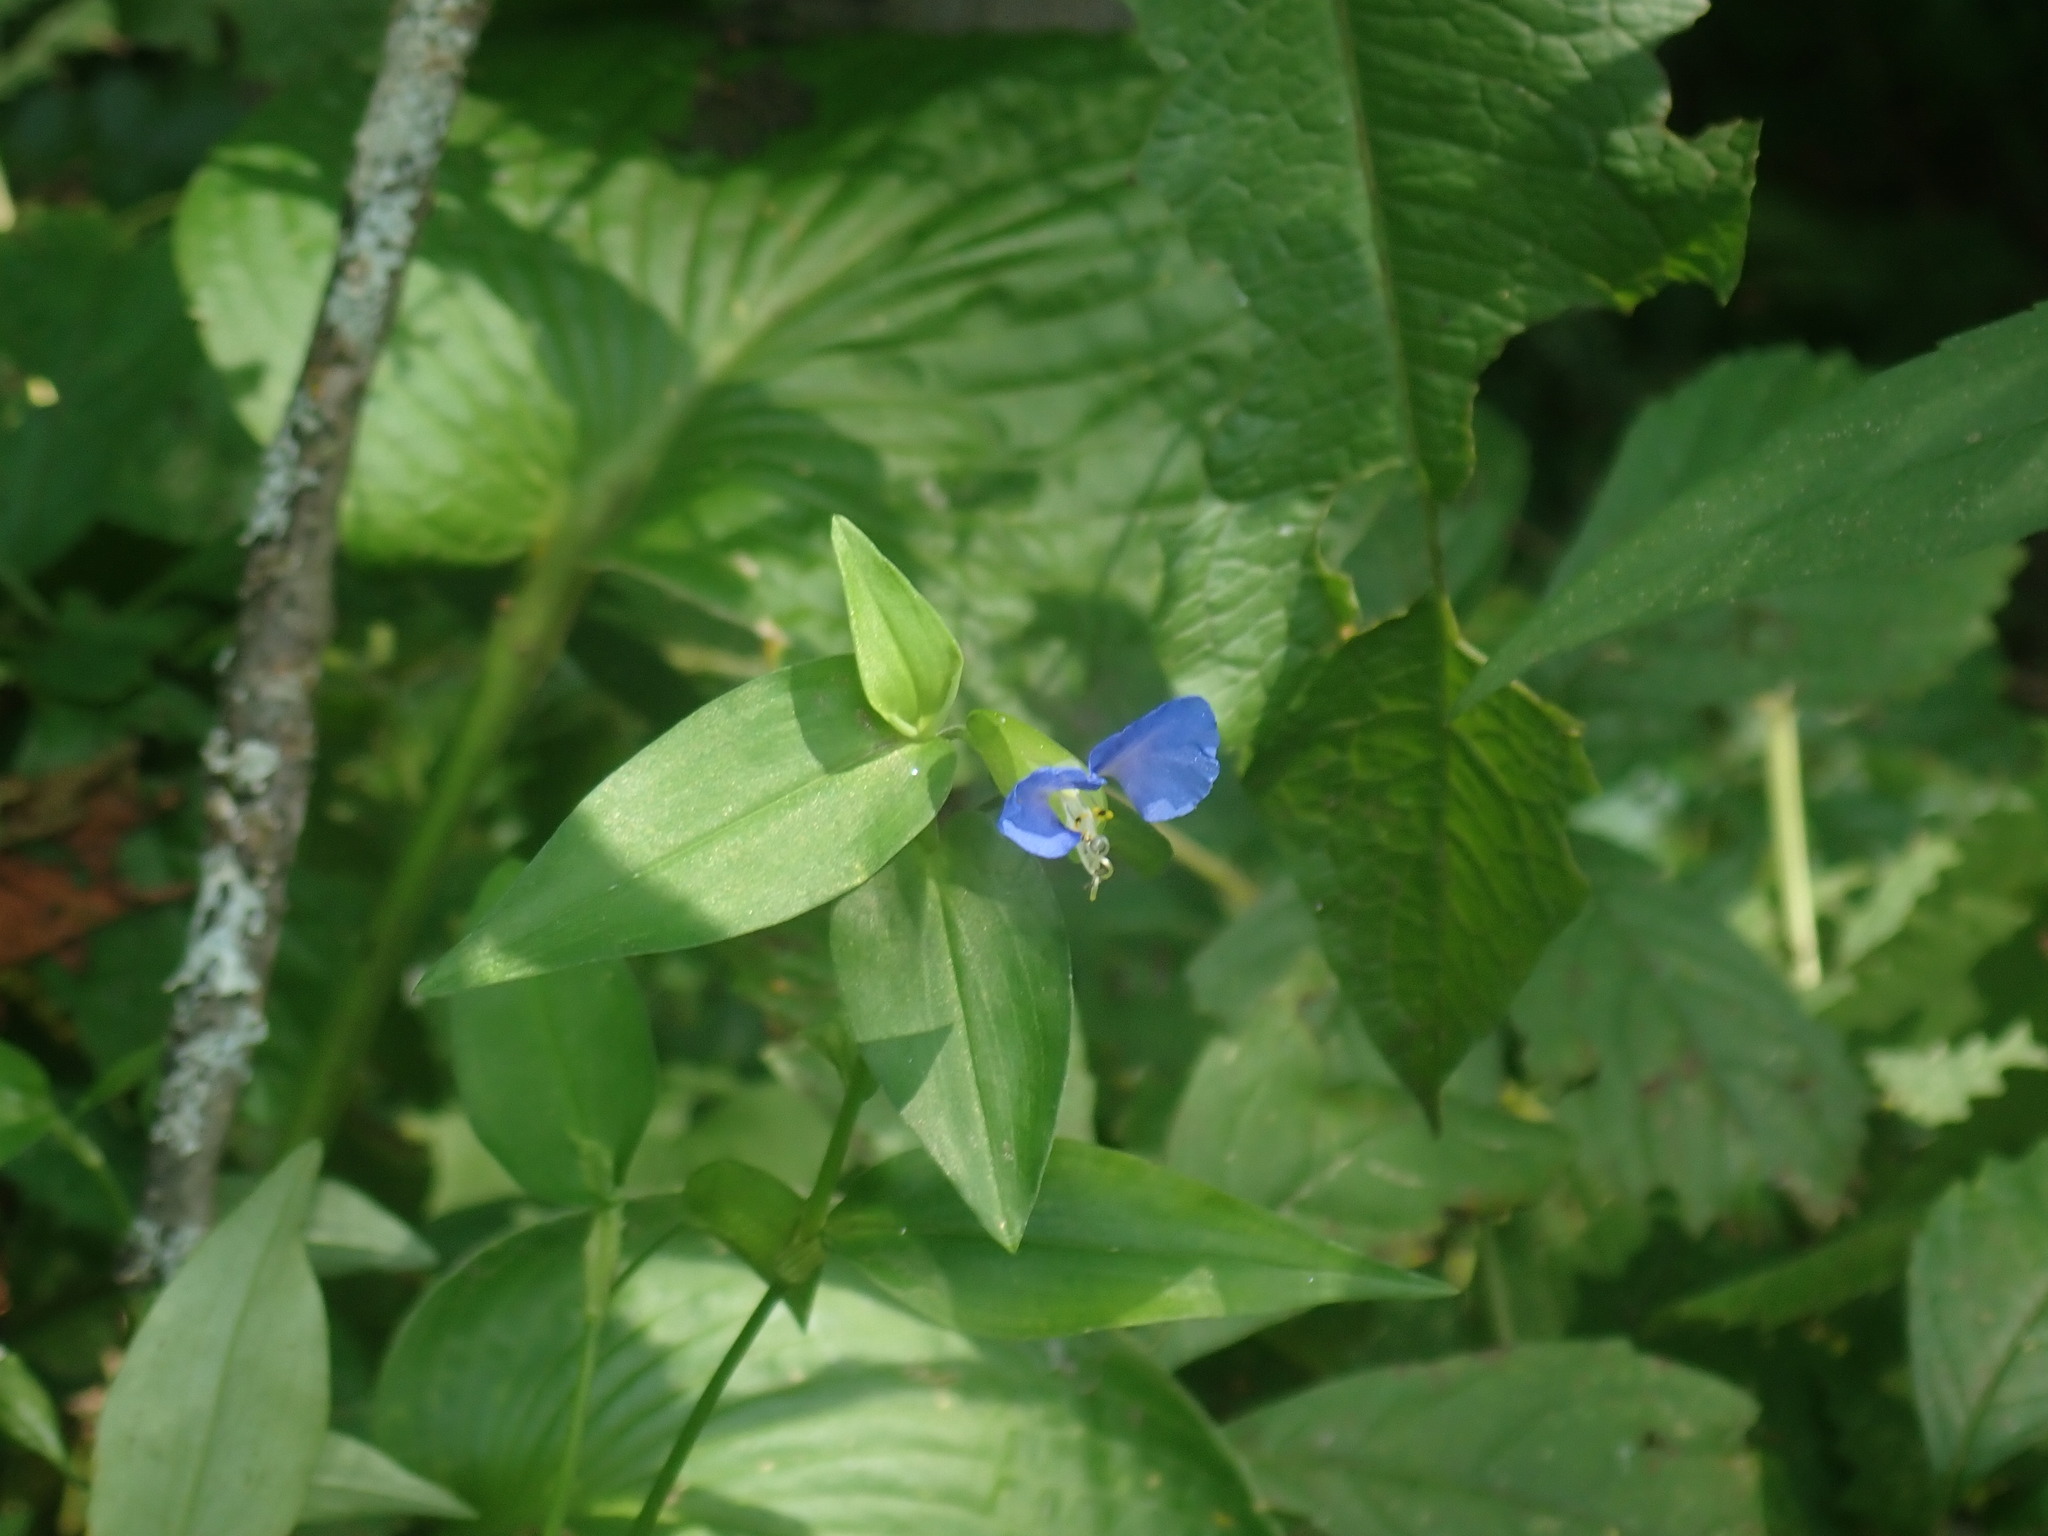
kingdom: Plantae
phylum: Tracheophyta
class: Liliopsida
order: Commelinales
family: Commelinaceae
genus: Commelina
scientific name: Commelina communis
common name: Asiatic dayflower
